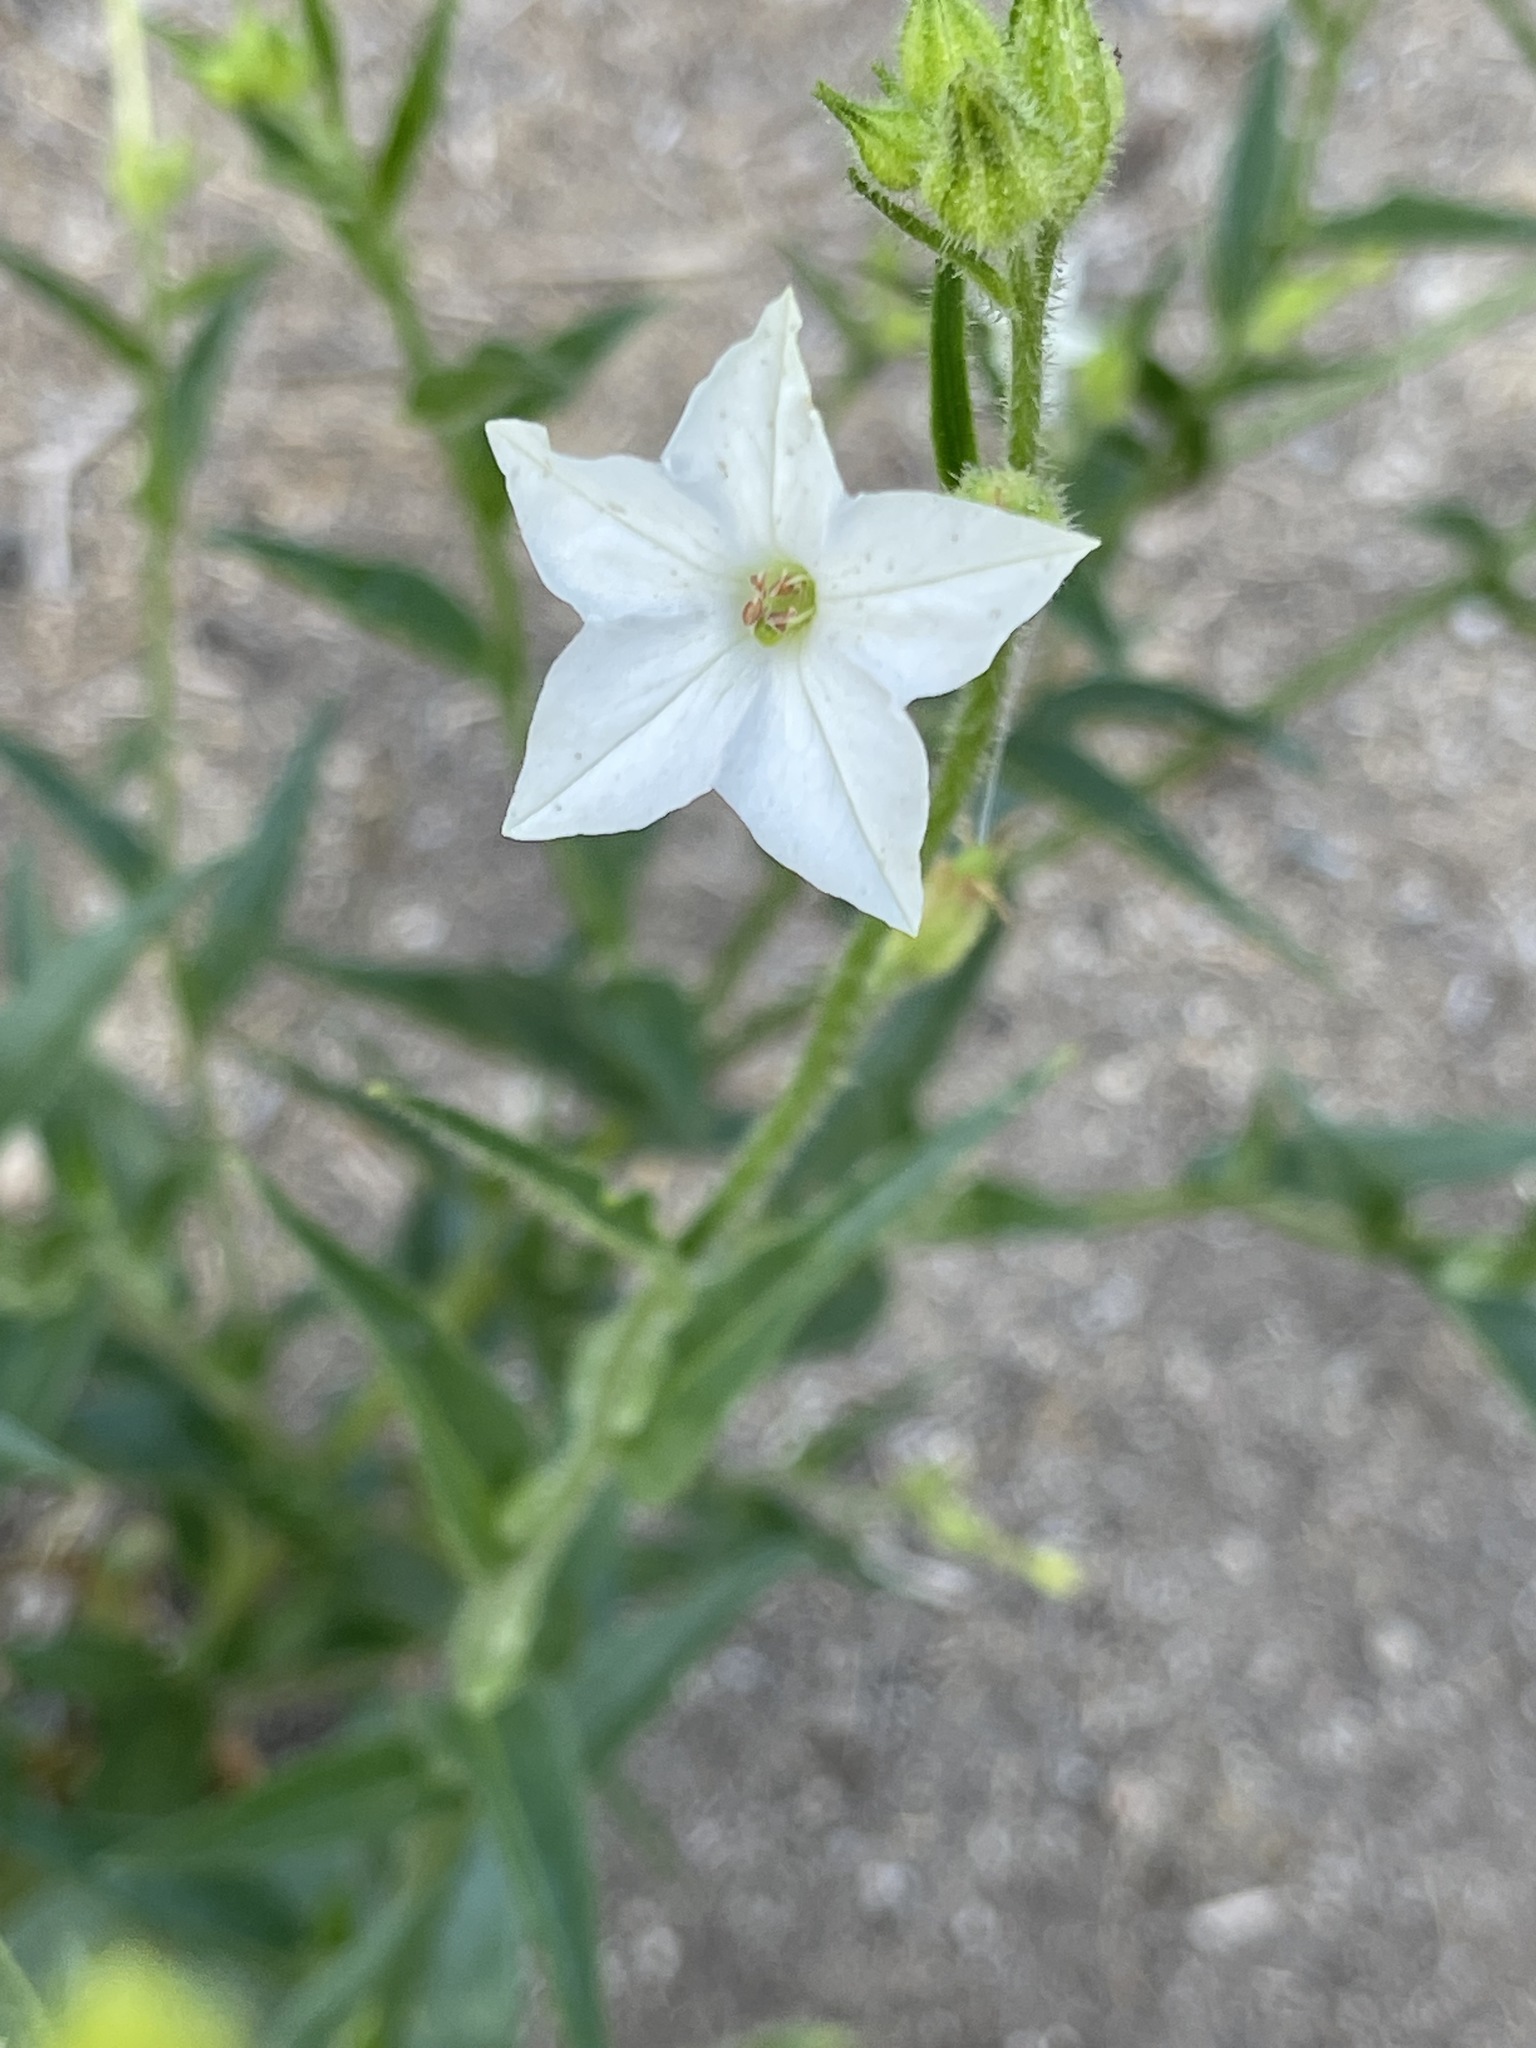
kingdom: Plantae
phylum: Tracheophyta
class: Magnoliopsida
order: Solanales
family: Solanaceae
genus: Nicotiana
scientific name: Nicotiana quadrivalvis
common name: Indian tobacco
